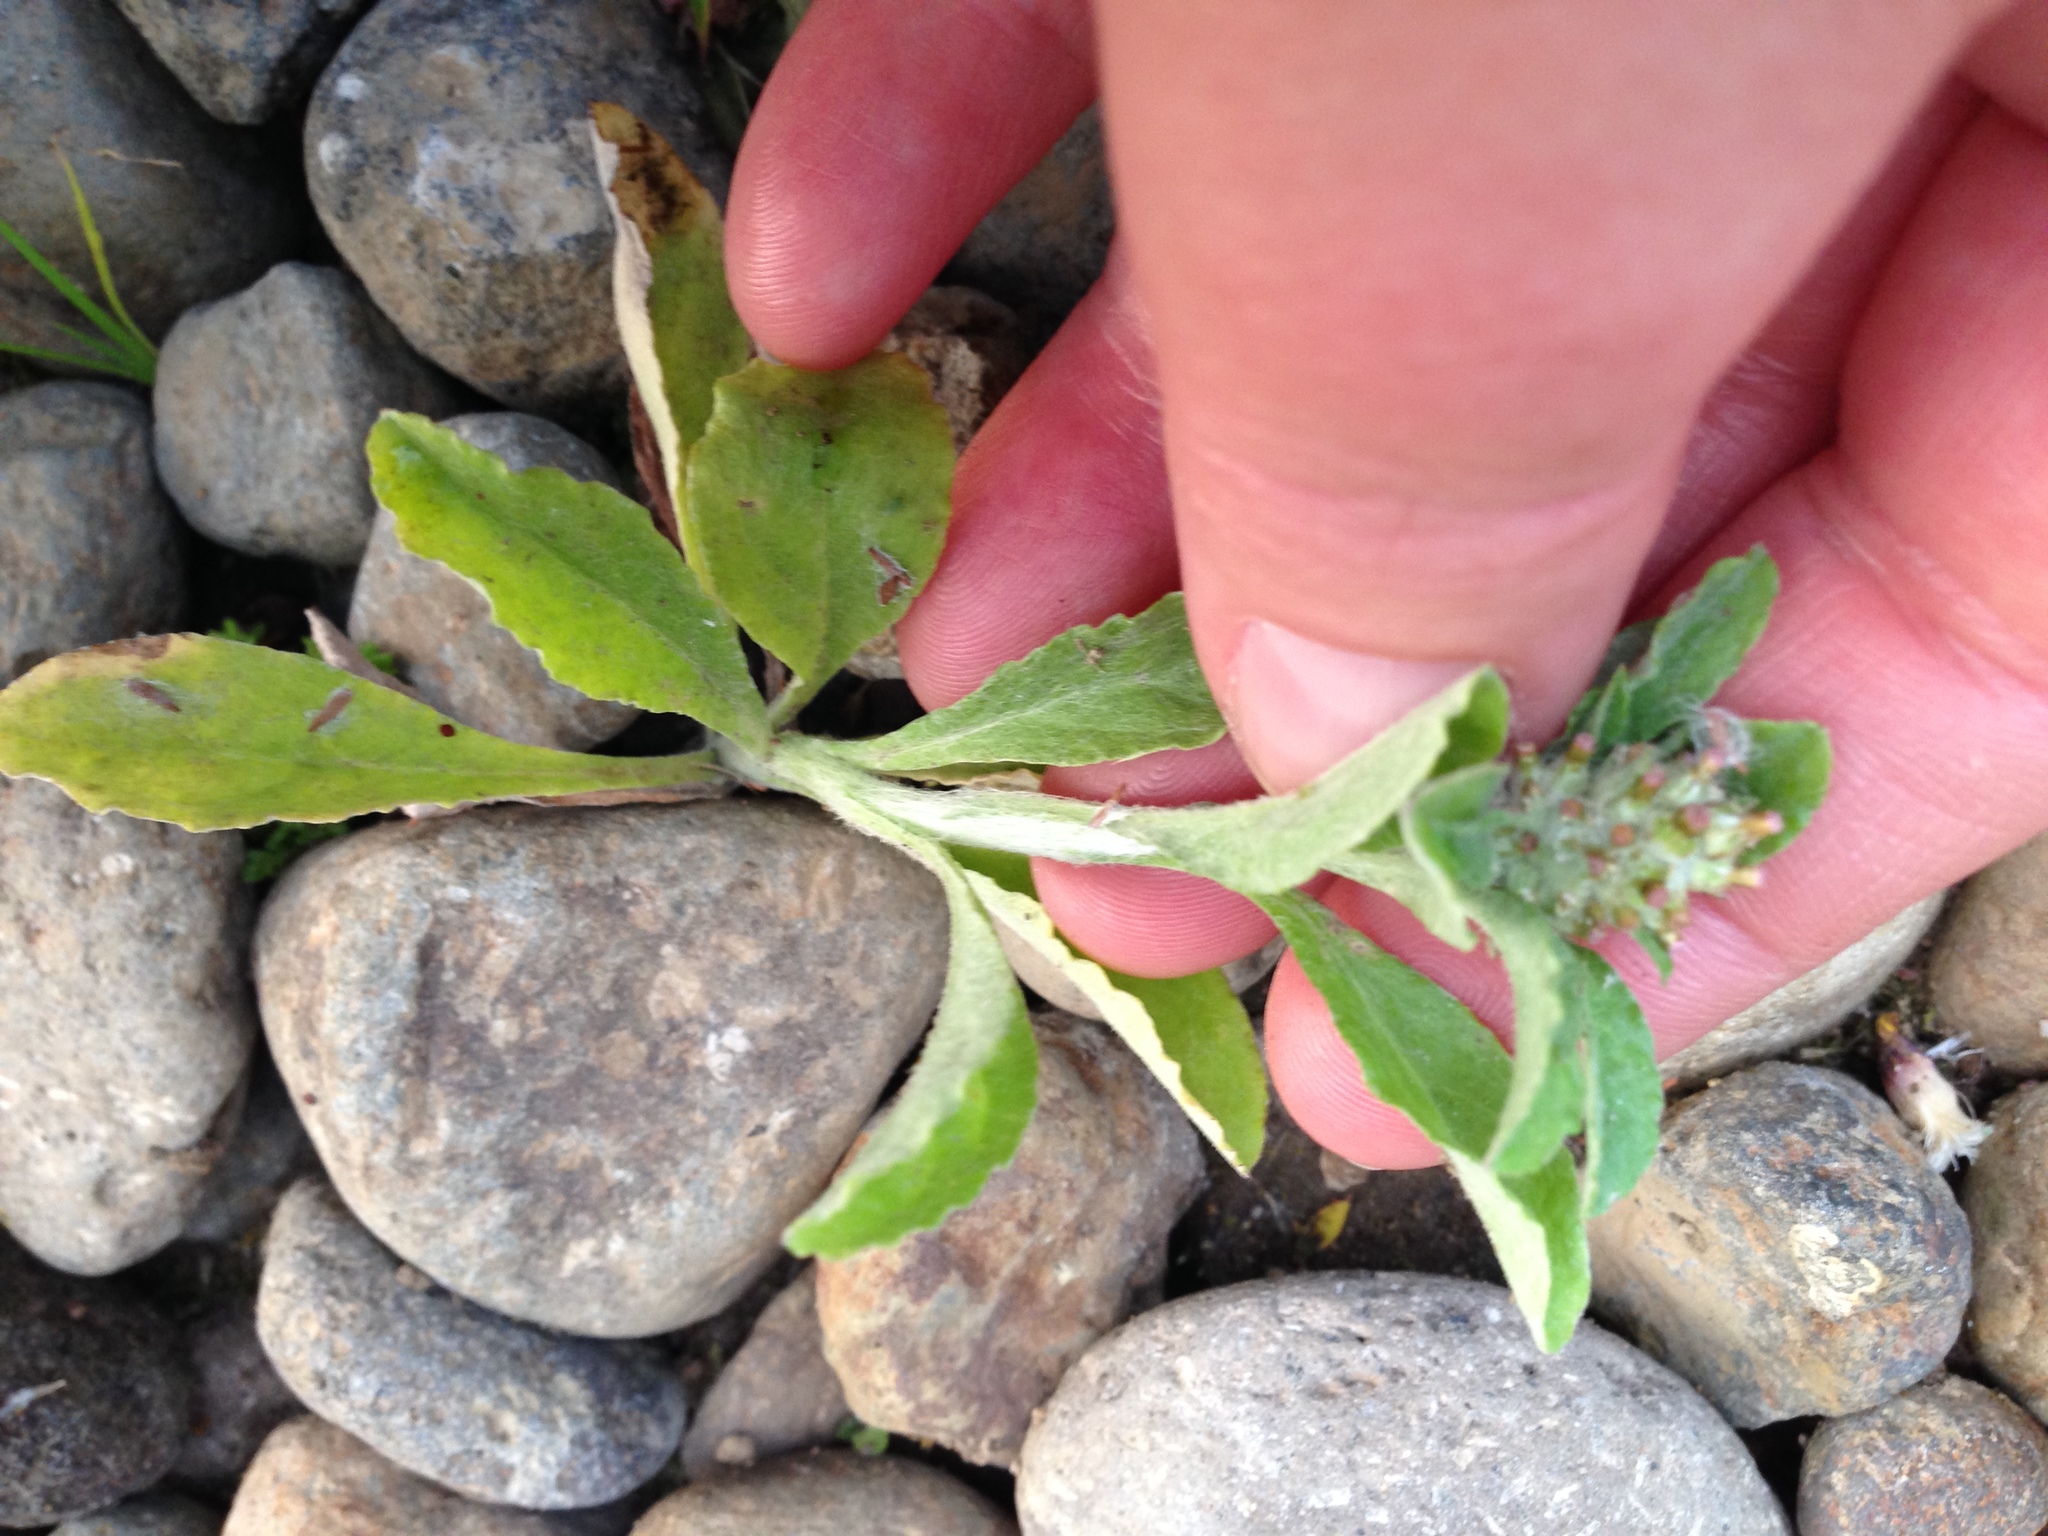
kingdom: Plantae
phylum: Tracheophyta
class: Magnoliopsida
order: Asterales
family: Asteraceae
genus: Gamochaeta
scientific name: Gamochaeta americana
